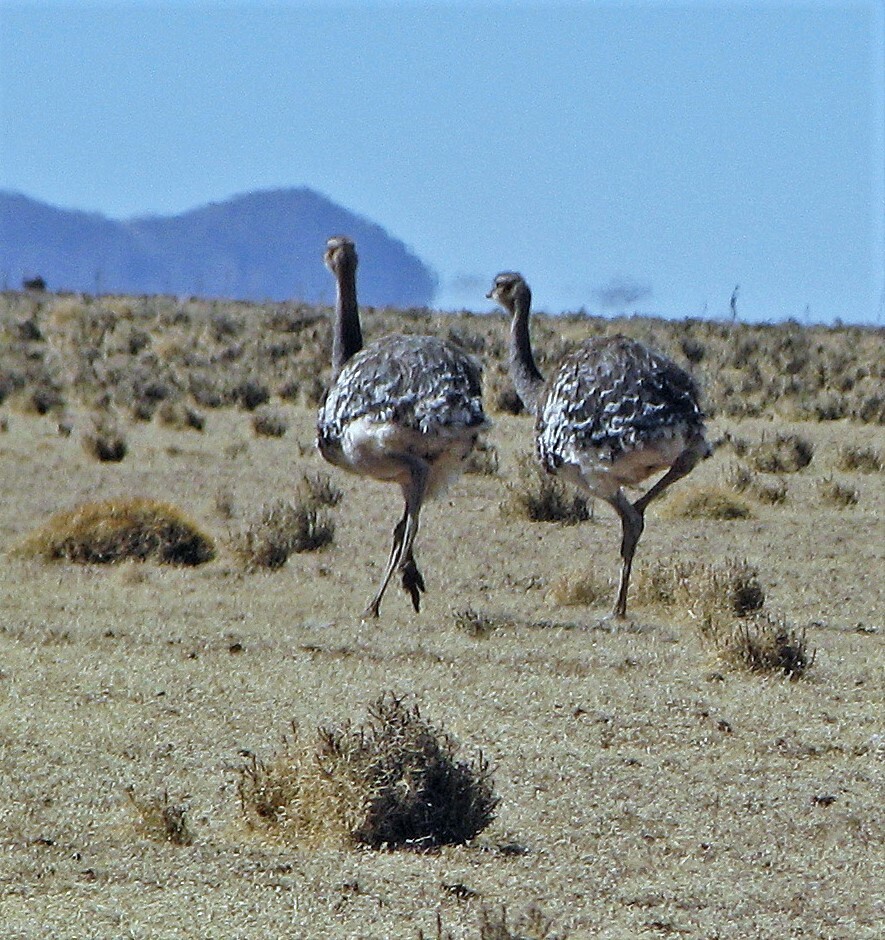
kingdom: Animalia
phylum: Chordata
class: Aves
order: Rheiformes
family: Rheidae
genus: Rhea
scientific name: Rhea pennata
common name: Lesser rhea
